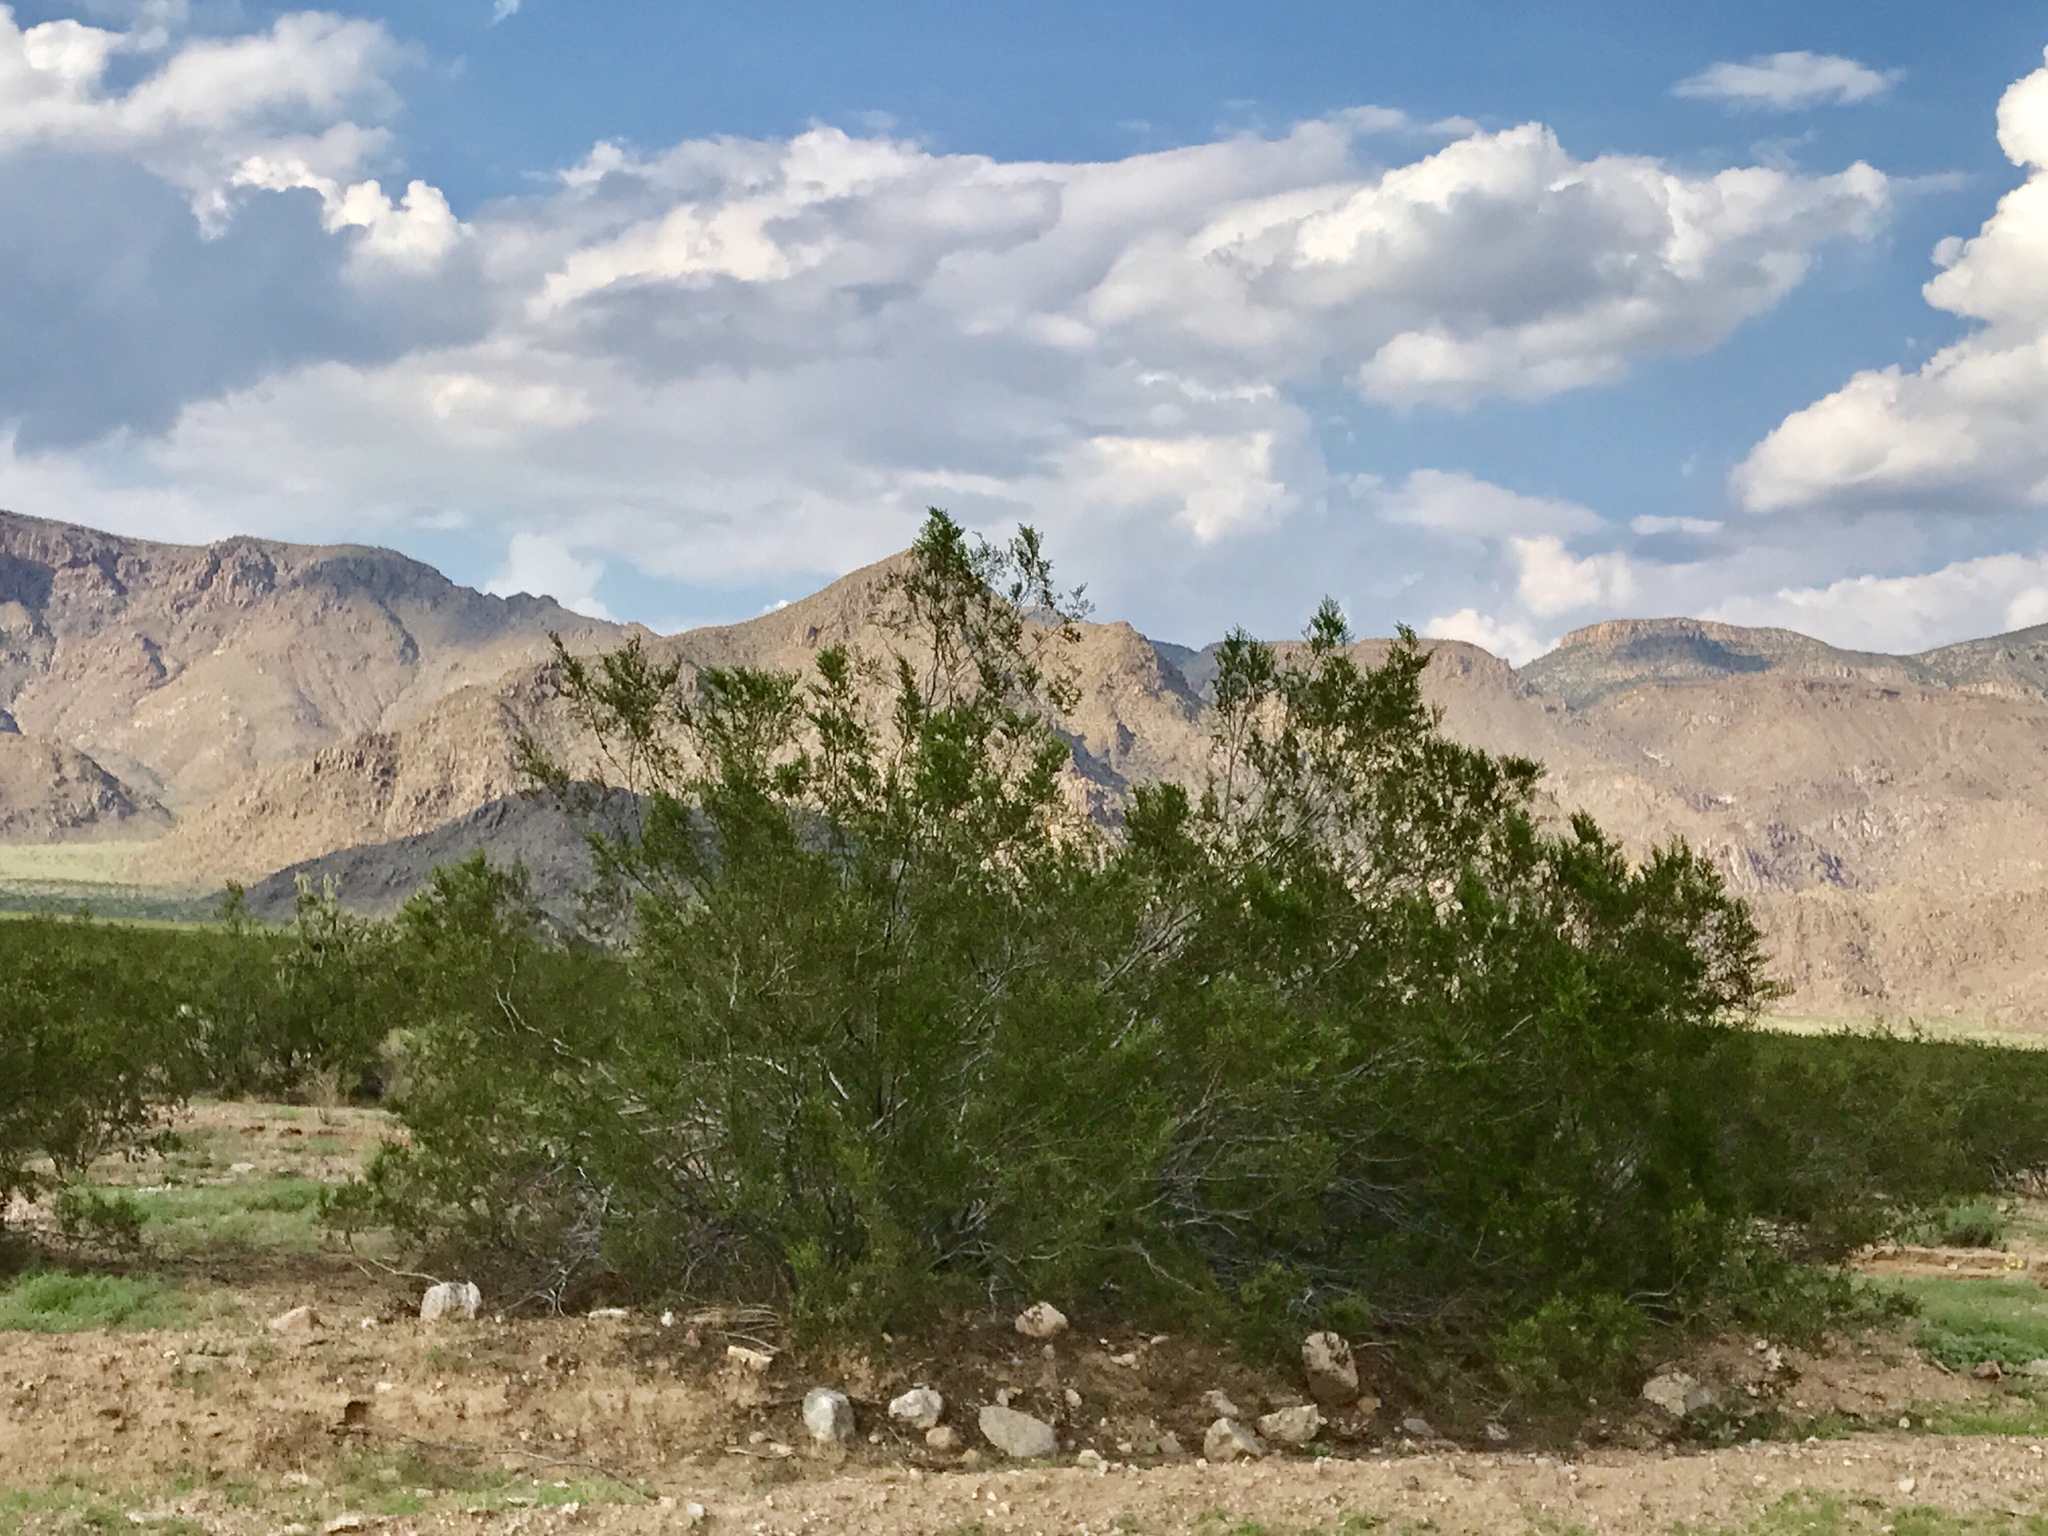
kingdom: Plantae
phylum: Tracheophyta
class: Magnoliopsida
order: Zygophyllales
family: Zygophyllaceae
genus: Larrea
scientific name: Larrea tridentata
